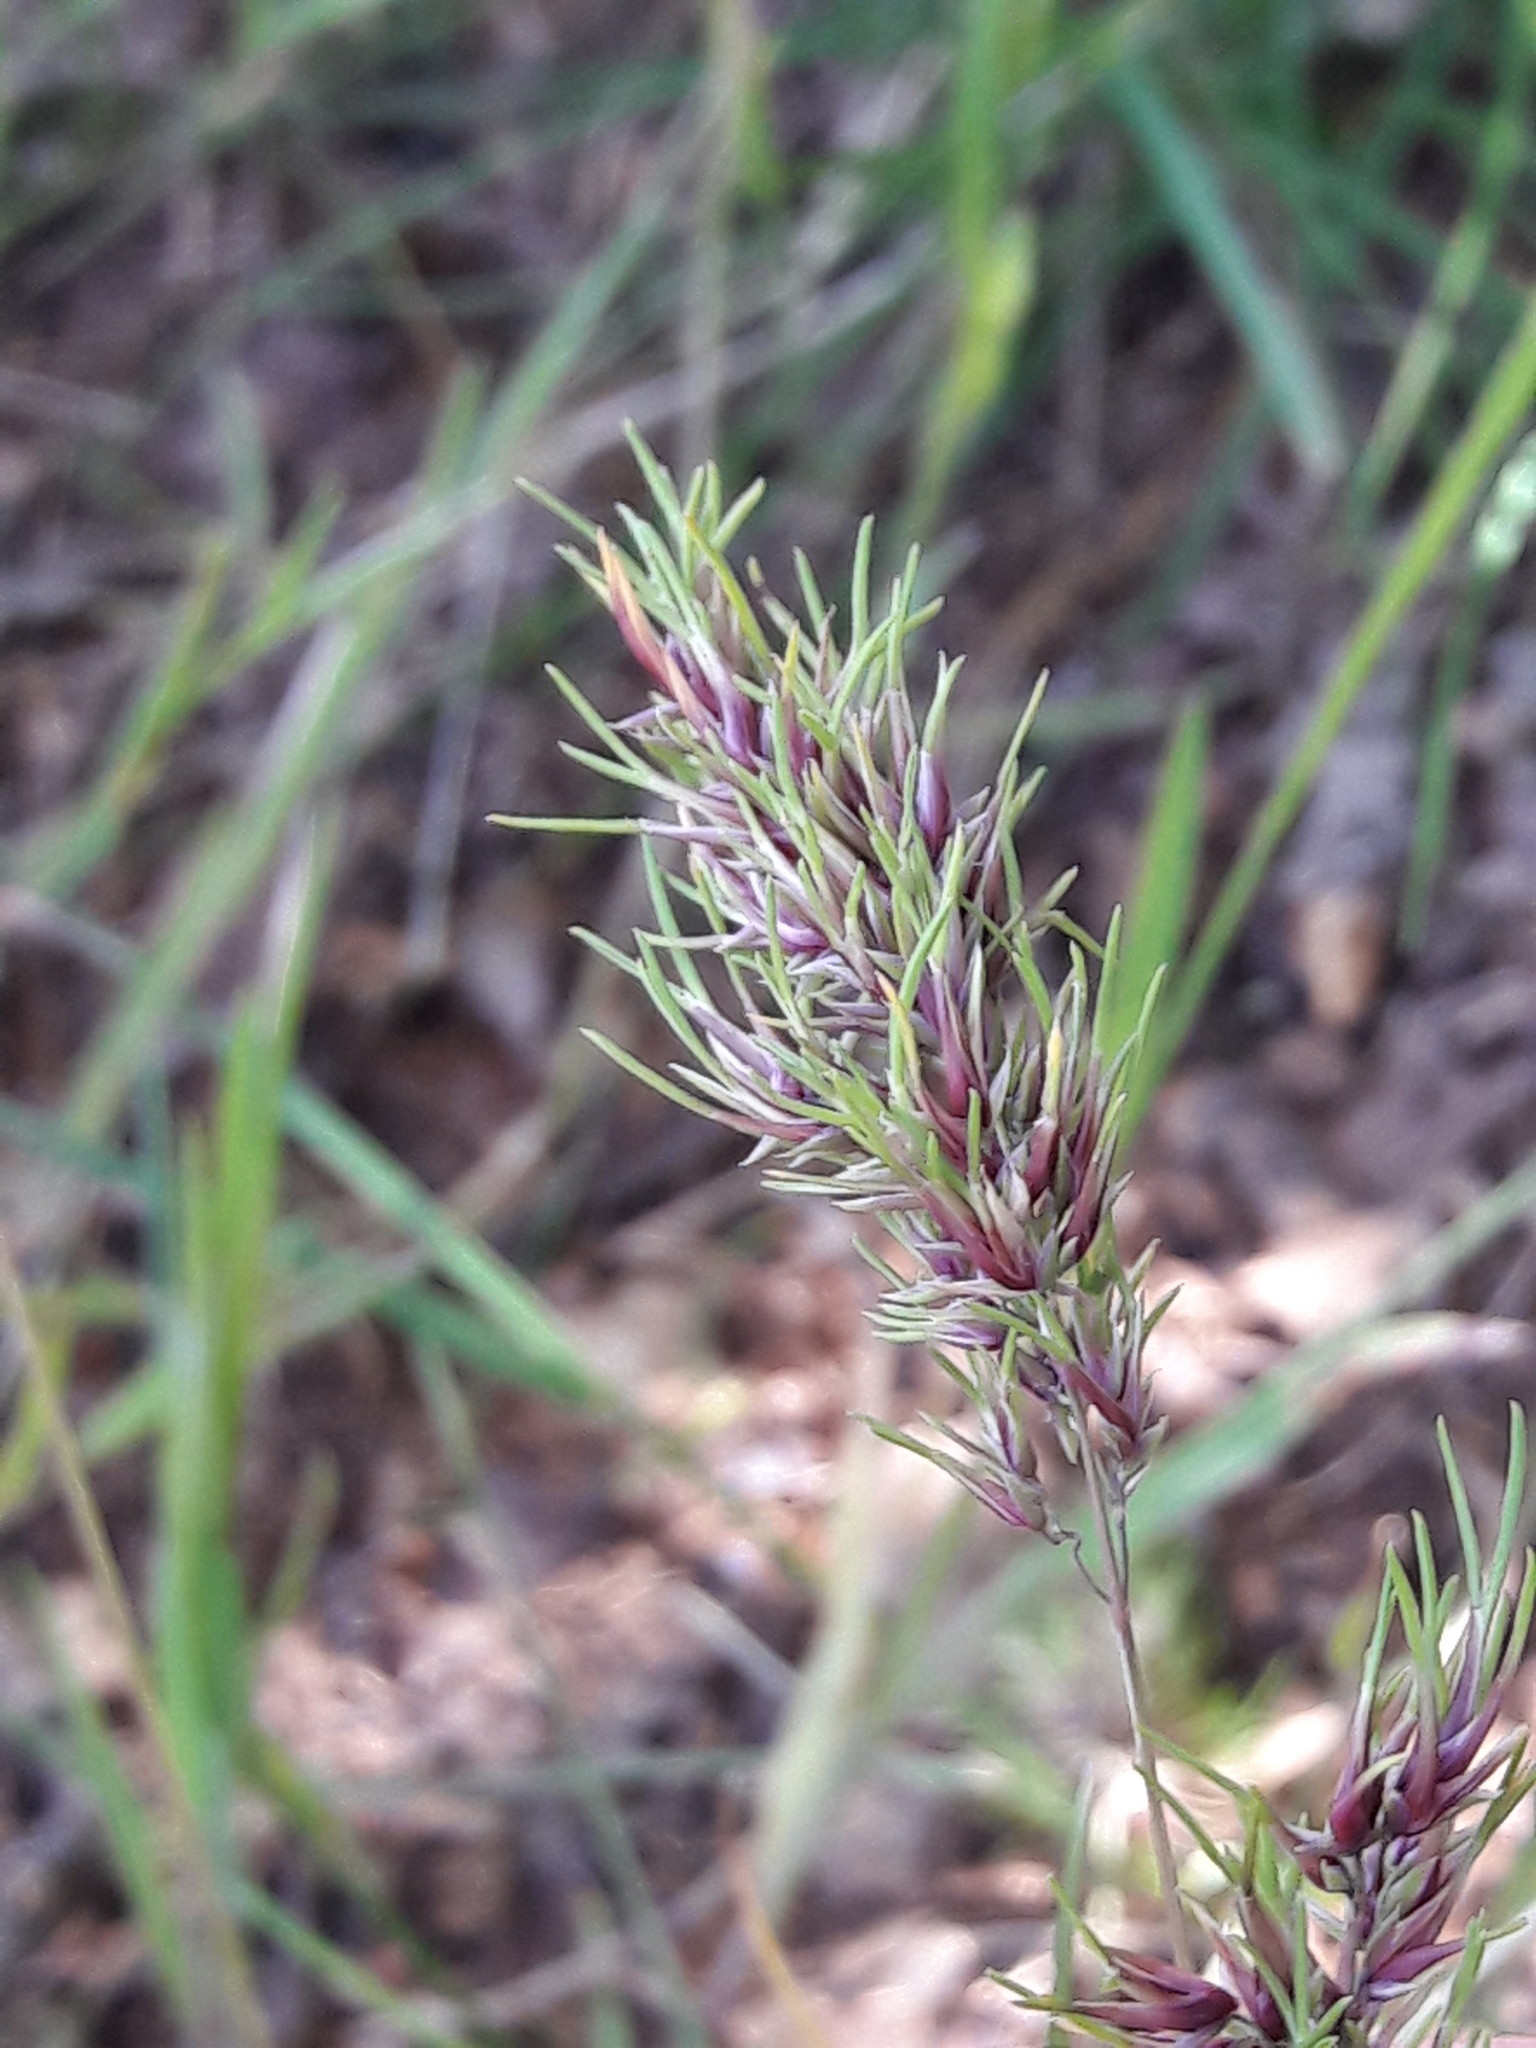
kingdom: Plantae
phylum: Tracheophyta
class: Liliopsida
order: Poales
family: Poaceae
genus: Poa
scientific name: Poa bulbosa
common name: Bulbous bluegrass
